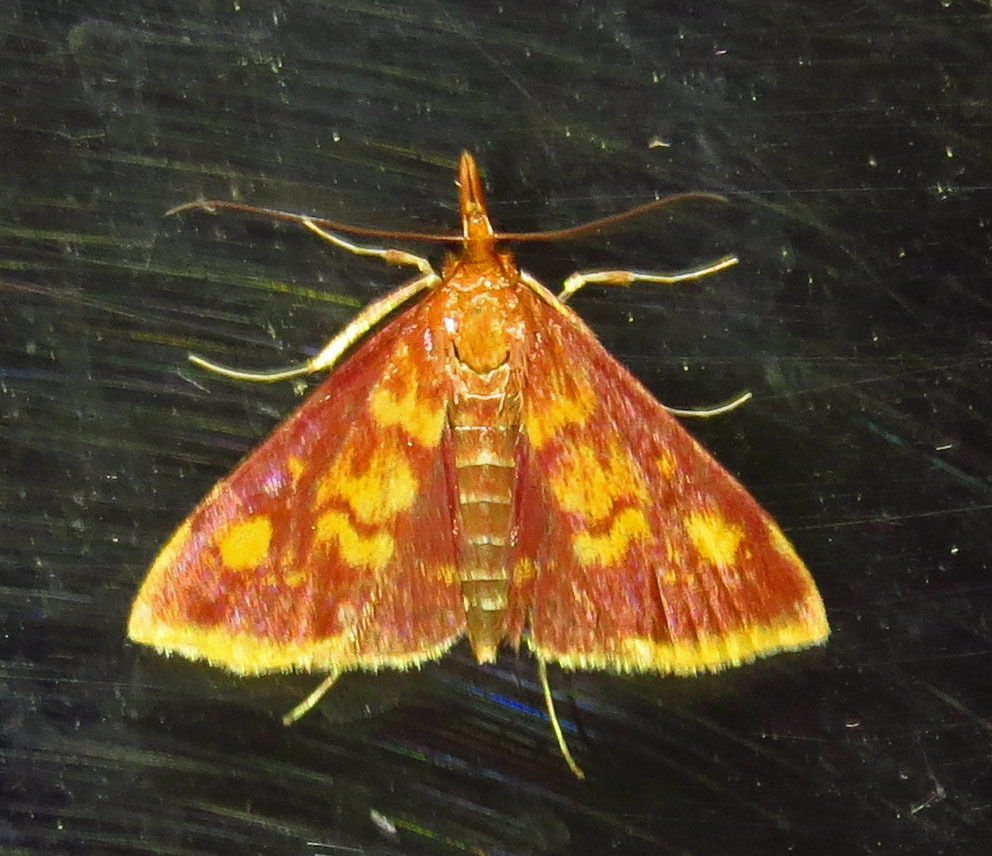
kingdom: Animalia
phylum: Arthropoda
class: Insecta
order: Lepidoptera
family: Crambidae
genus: Pyrausta
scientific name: Pyrausta acrionalis
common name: Mint-loving pyrausta moth
